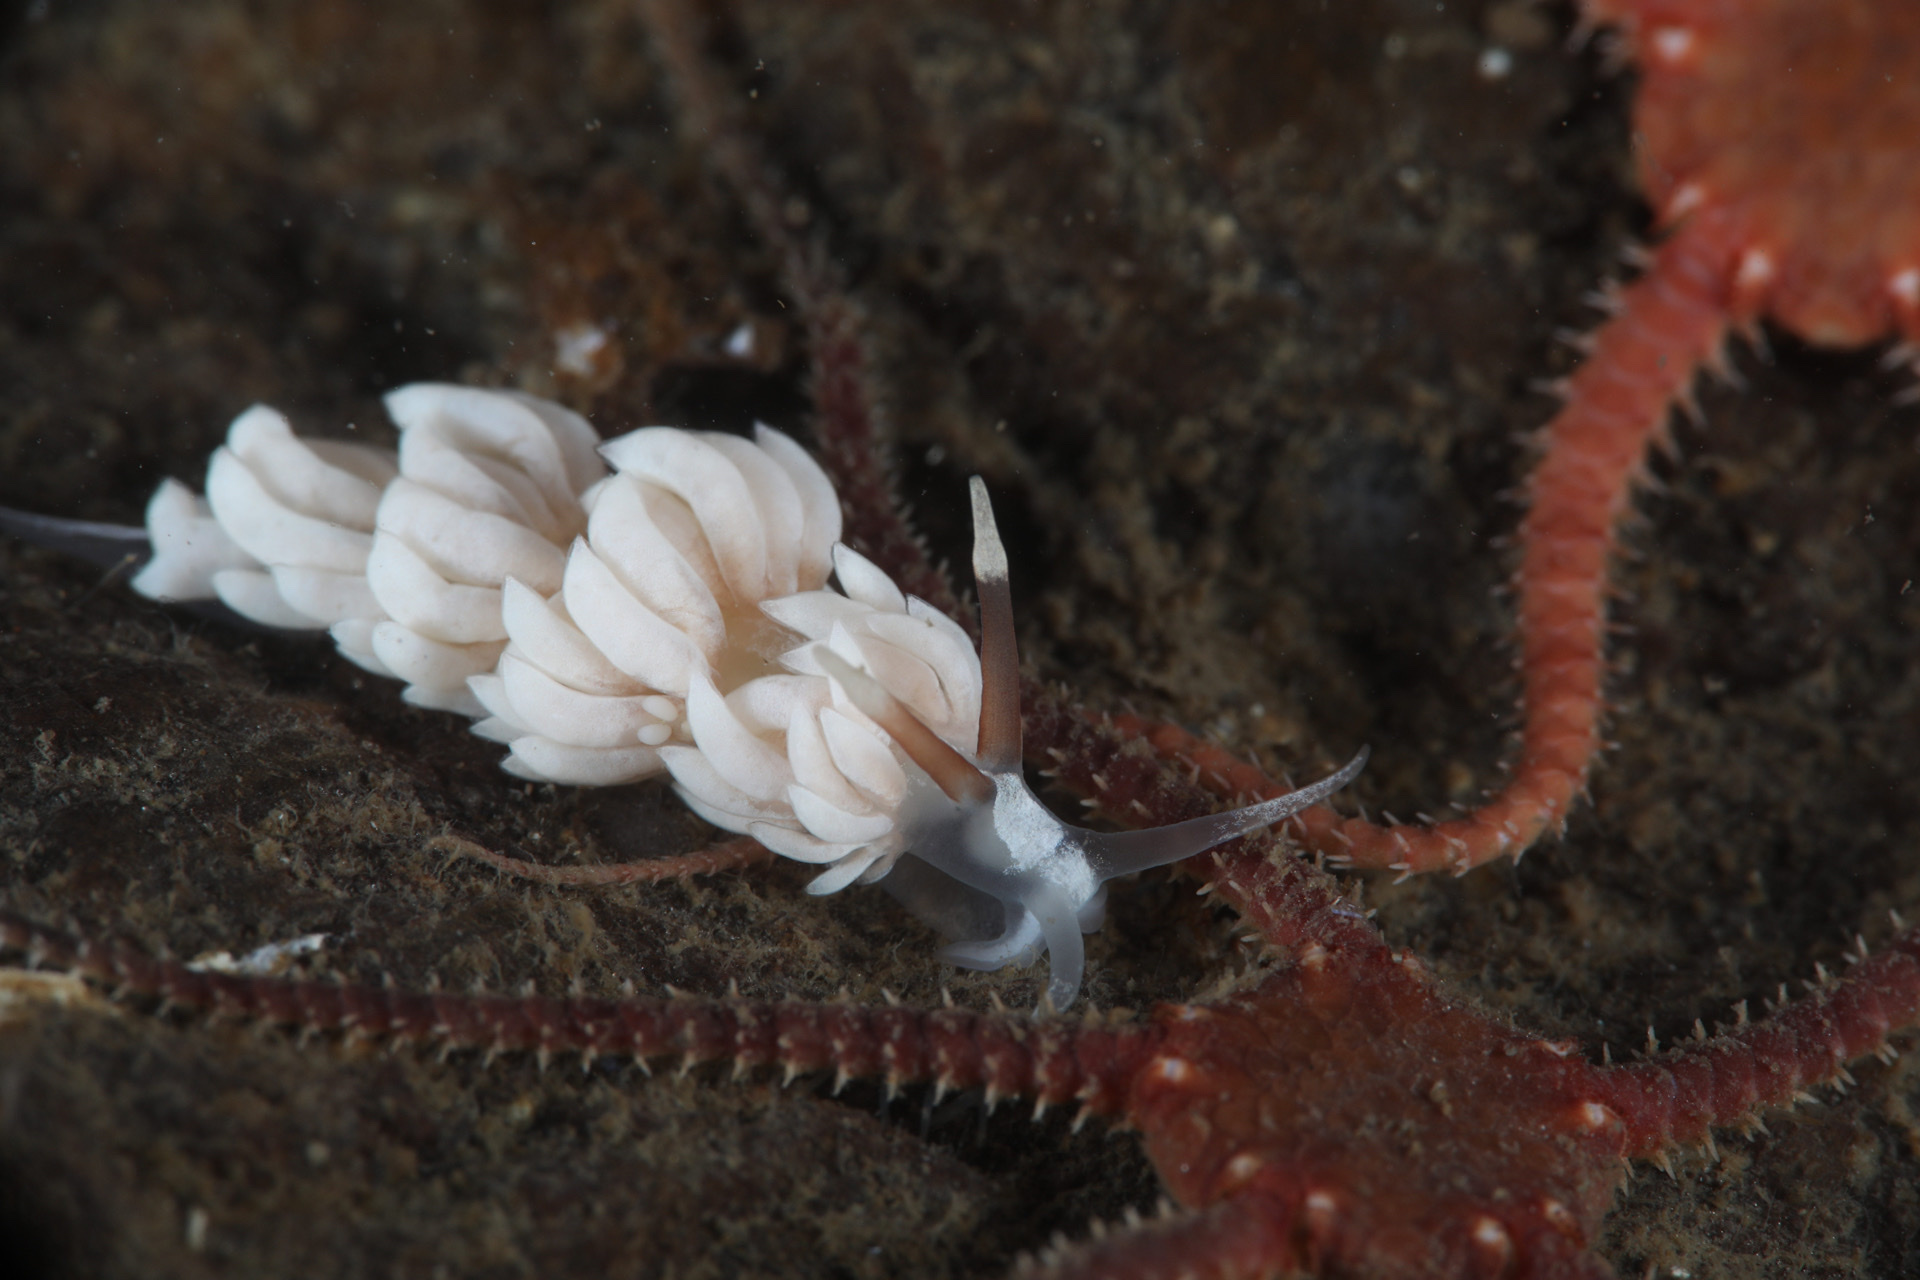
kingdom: Animalia
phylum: Mollusca
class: Gastropoda
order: Nudibranchia
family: Facelinidae
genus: Favorinus
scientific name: Favorinus branchialis
